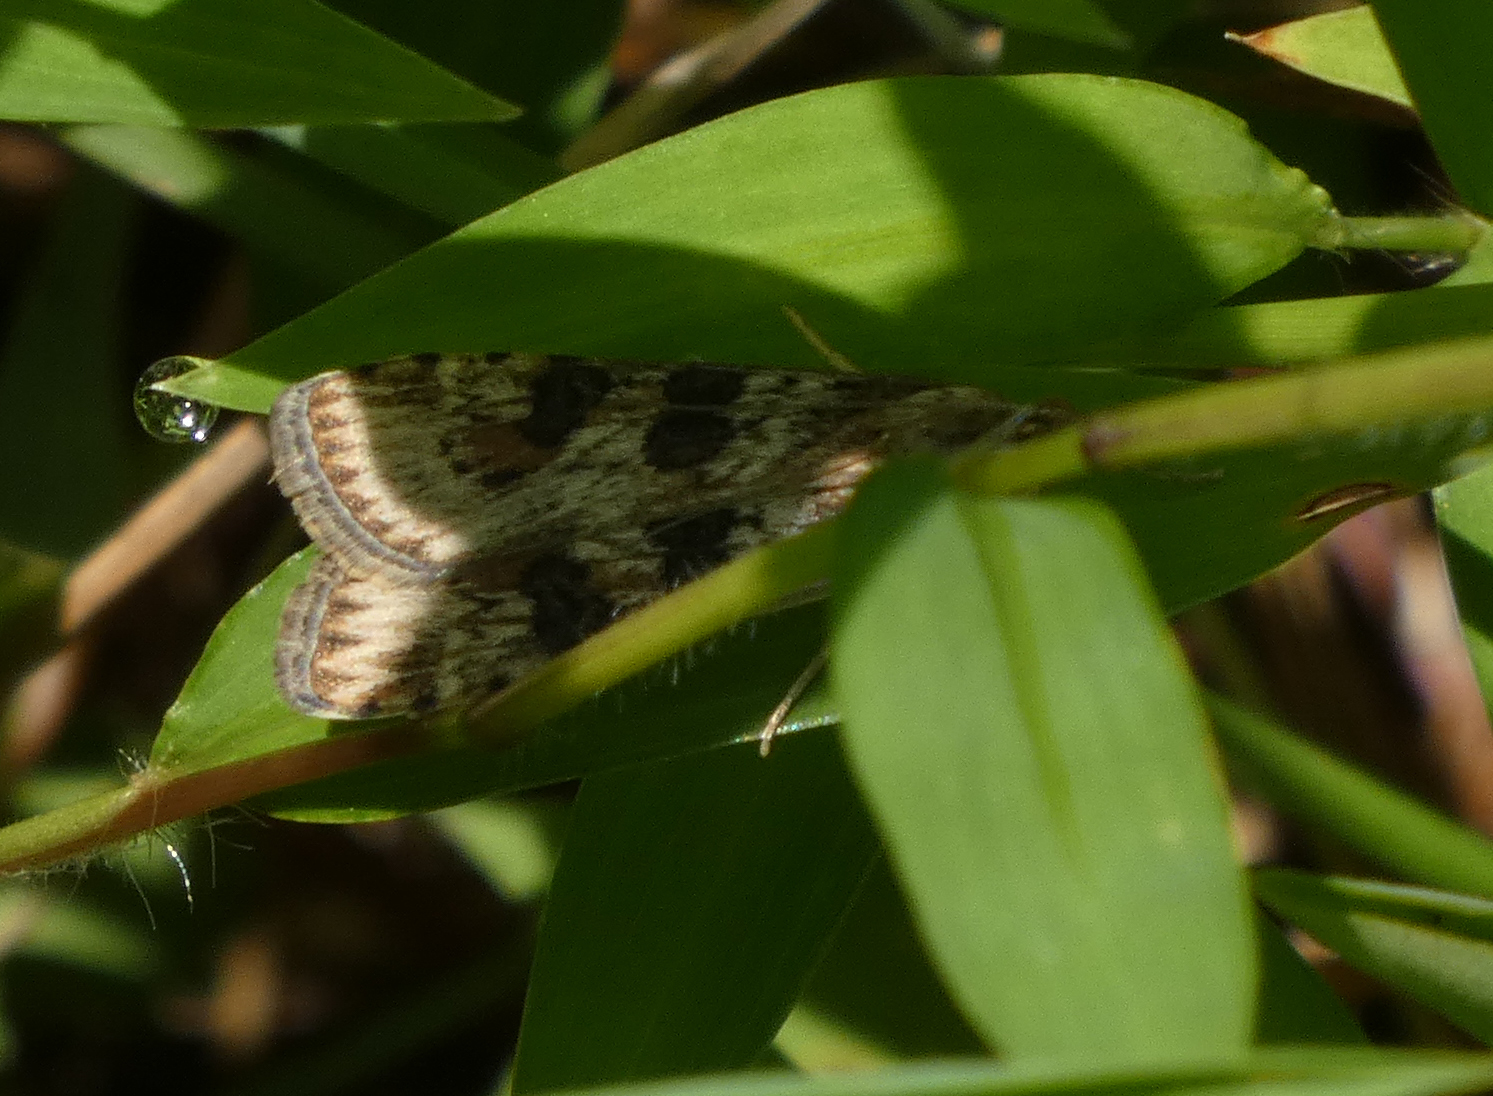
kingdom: Animalia
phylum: Arthropoda
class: Insecta
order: Lepidoptera
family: Crambidae
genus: Nomophila
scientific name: Nomophila nearctica
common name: American rush veneer
